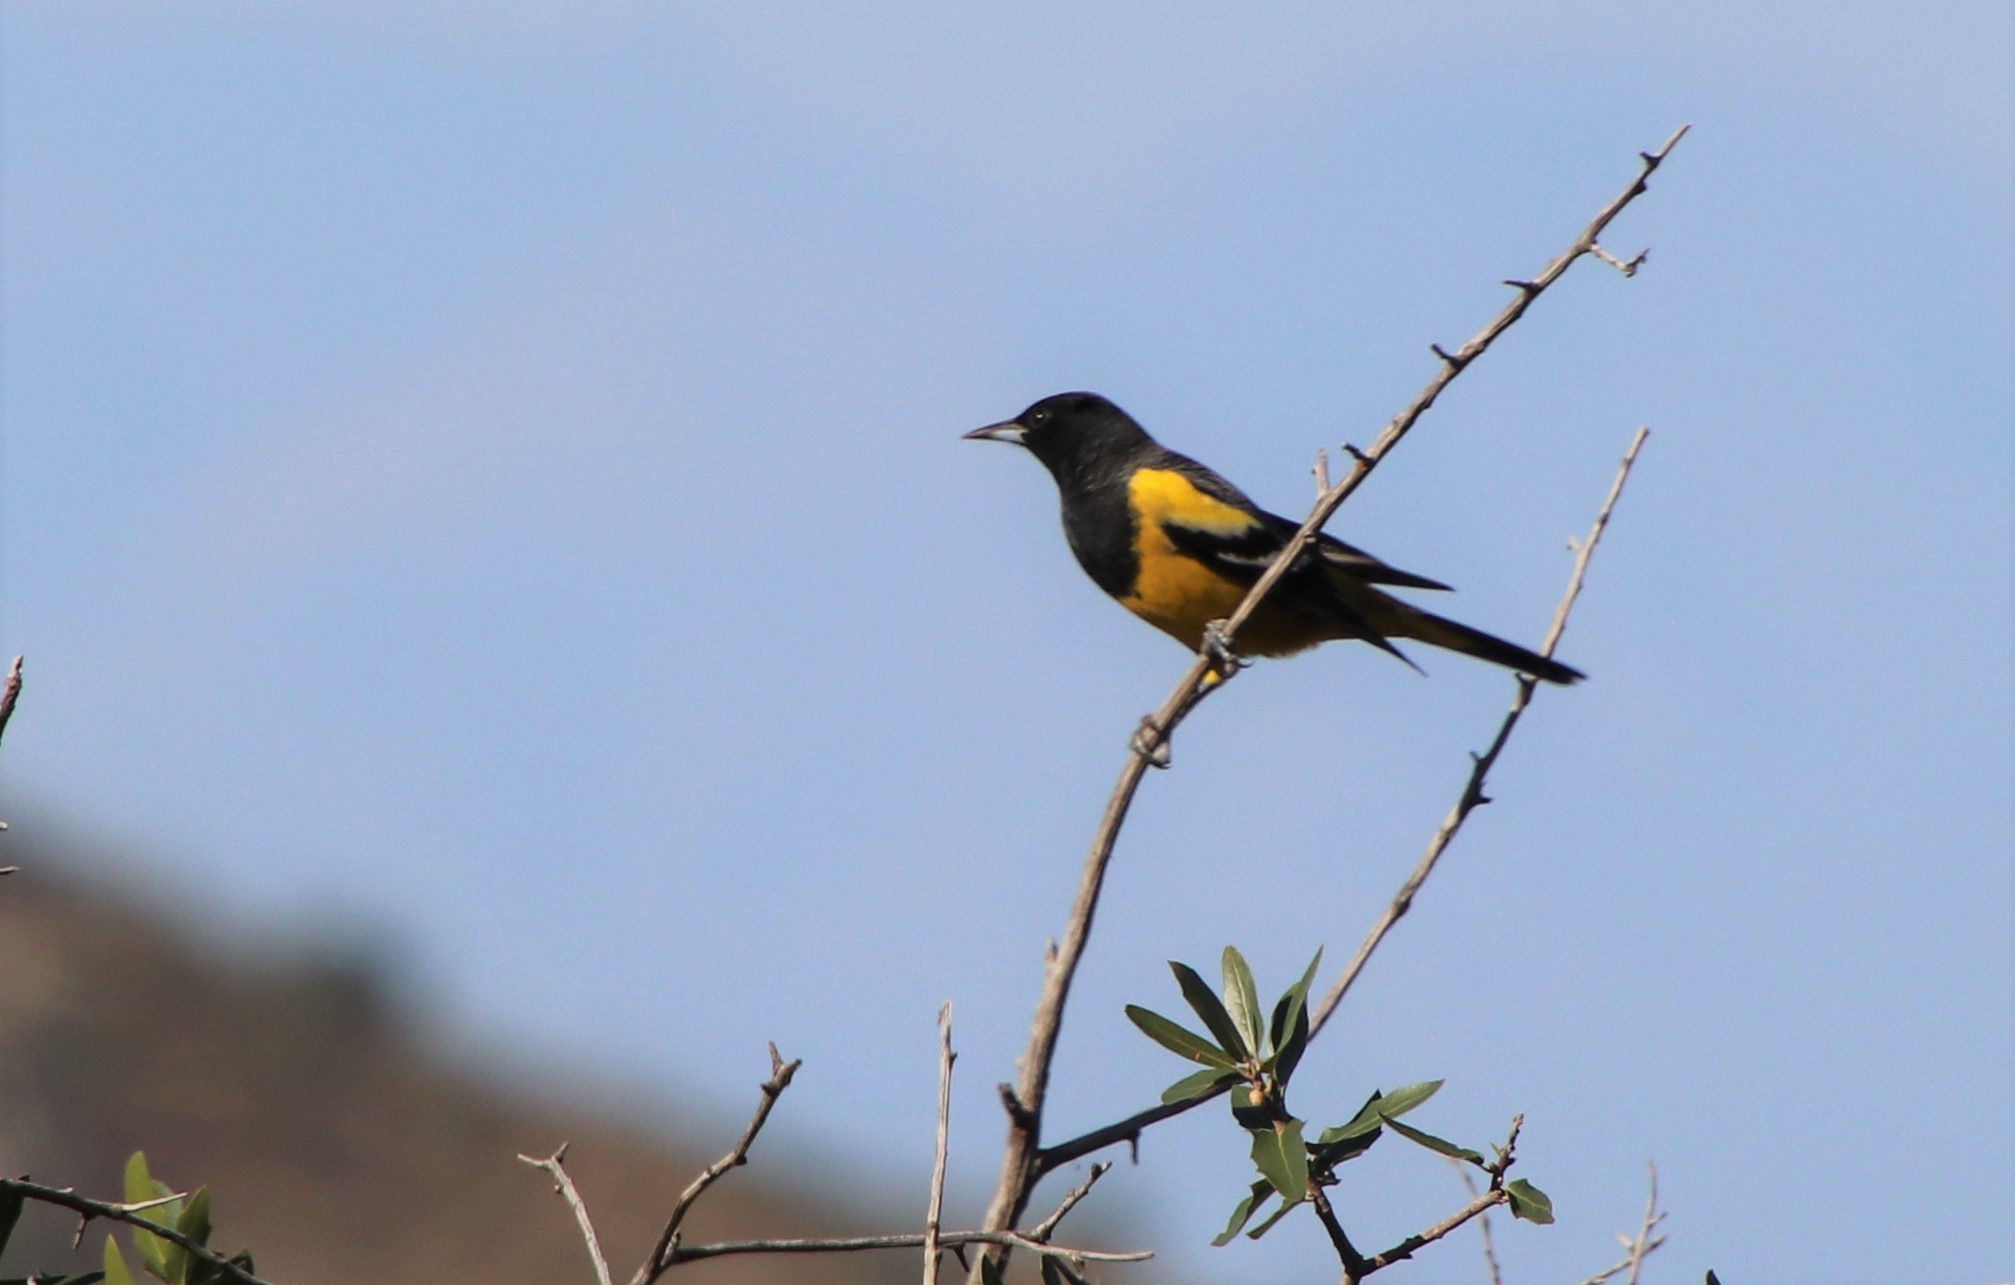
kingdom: Animalia
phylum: Chordata
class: Aves
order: Passeriformes
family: Icteridae
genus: Icterus
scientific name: Icterus parisorum
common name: Scott's oriole
